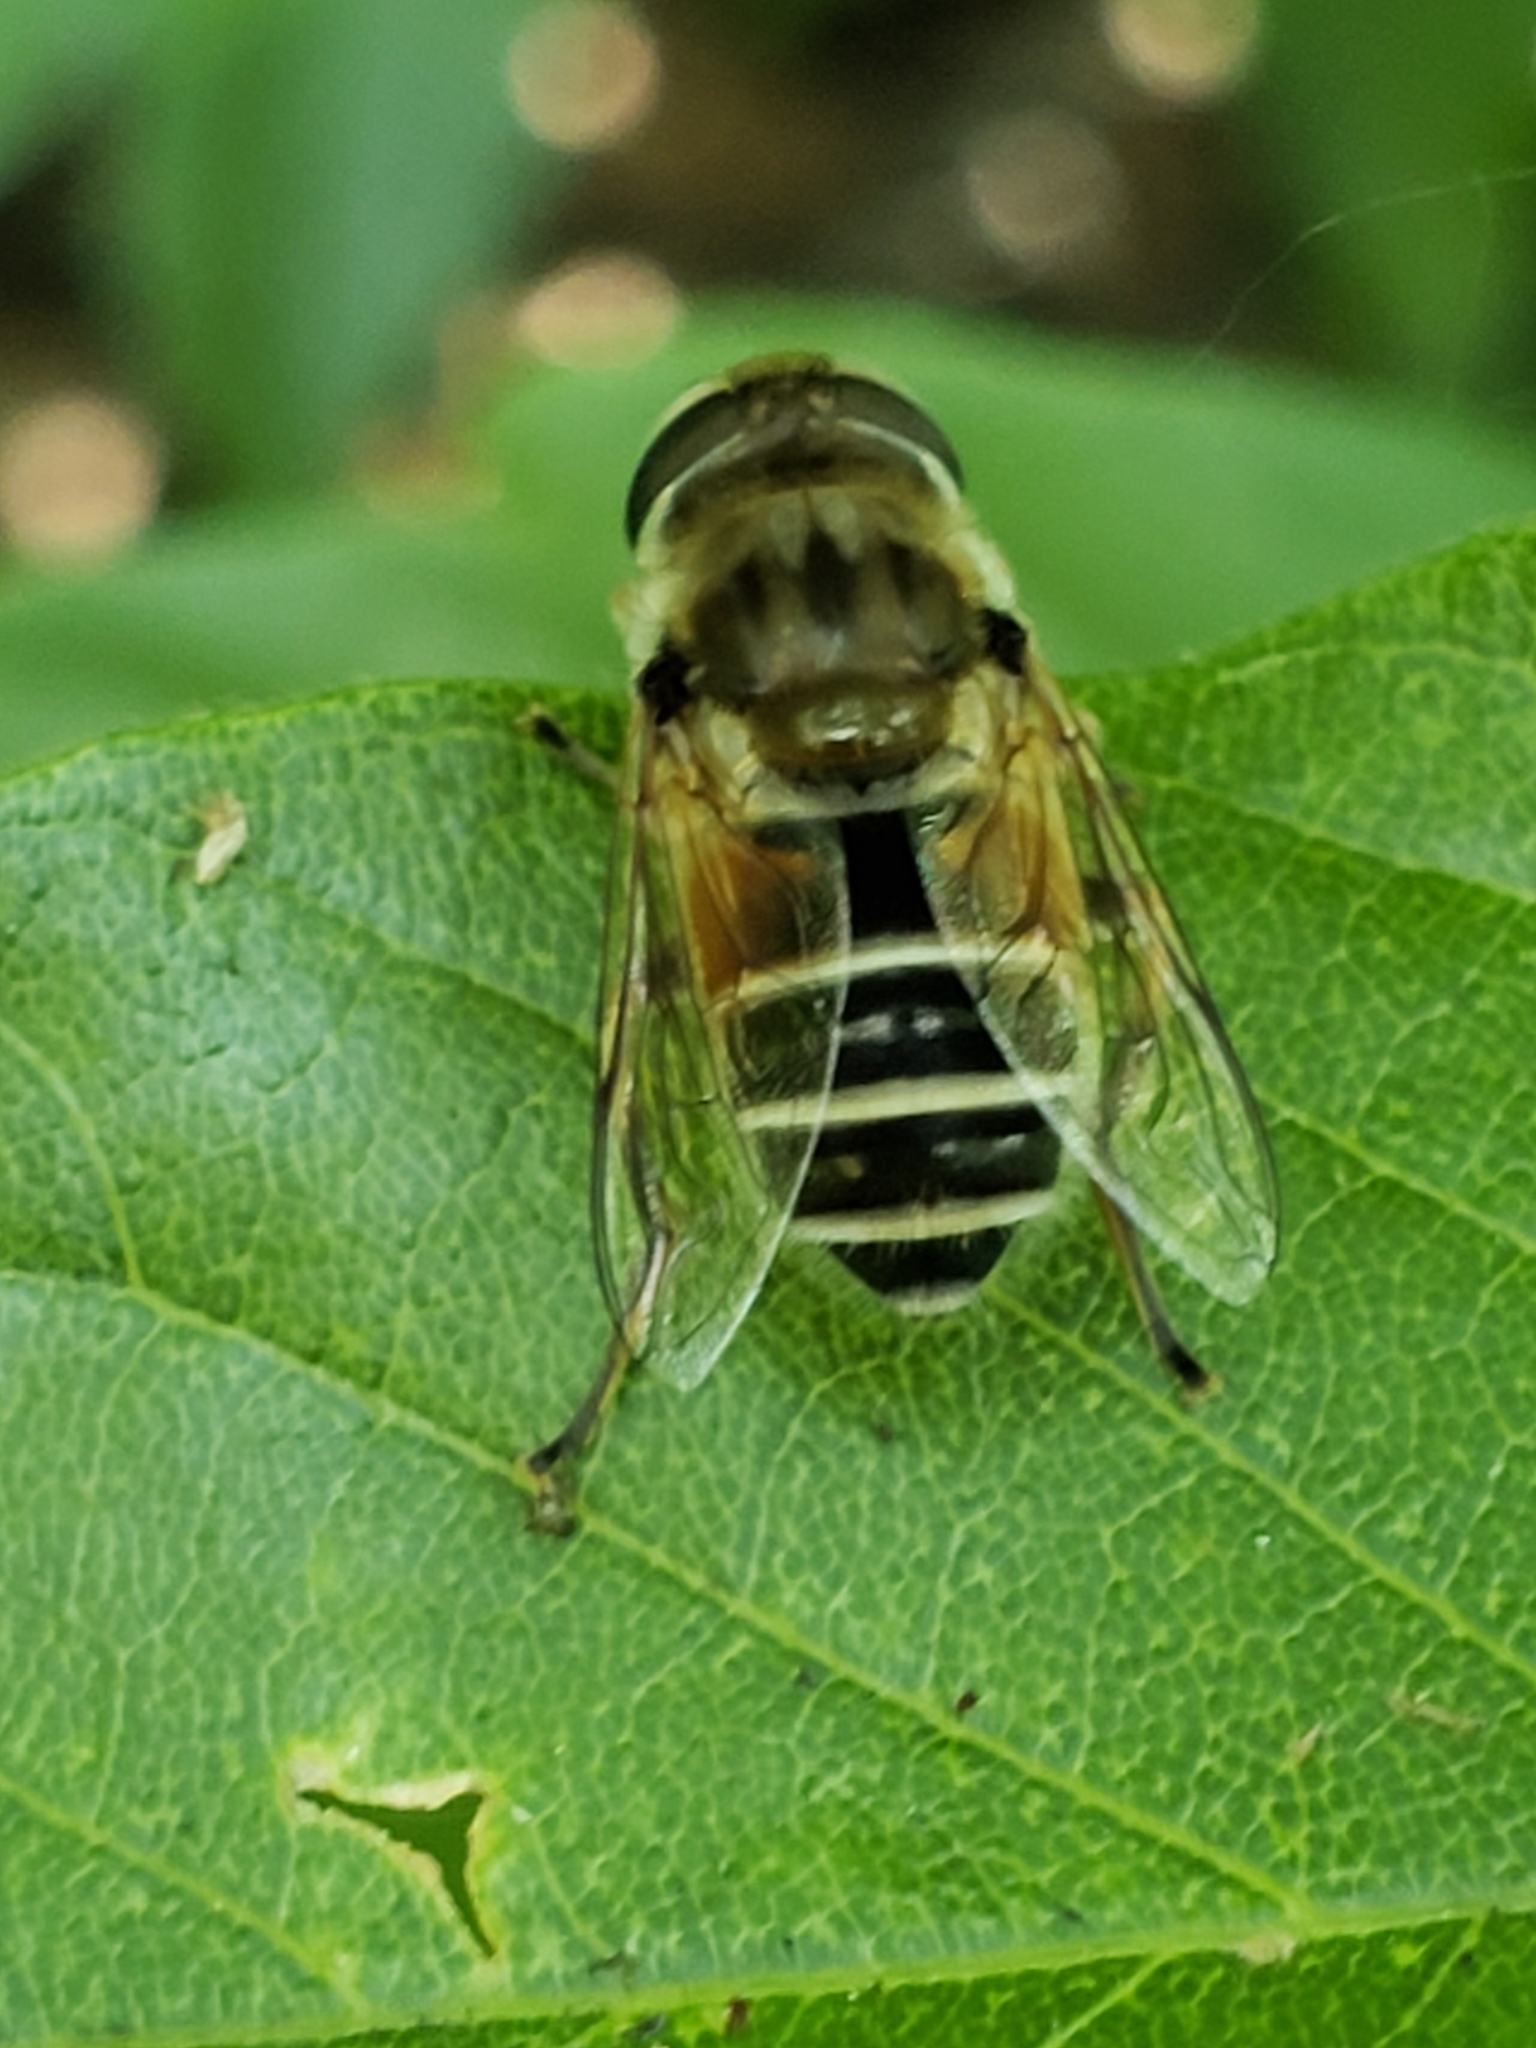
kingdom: Animalia
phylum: Arthropoda
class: Insecta
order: Diptera
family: Syrphidae
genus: Eristalis
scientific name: Eristalis arbustorum
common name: Hover fly
